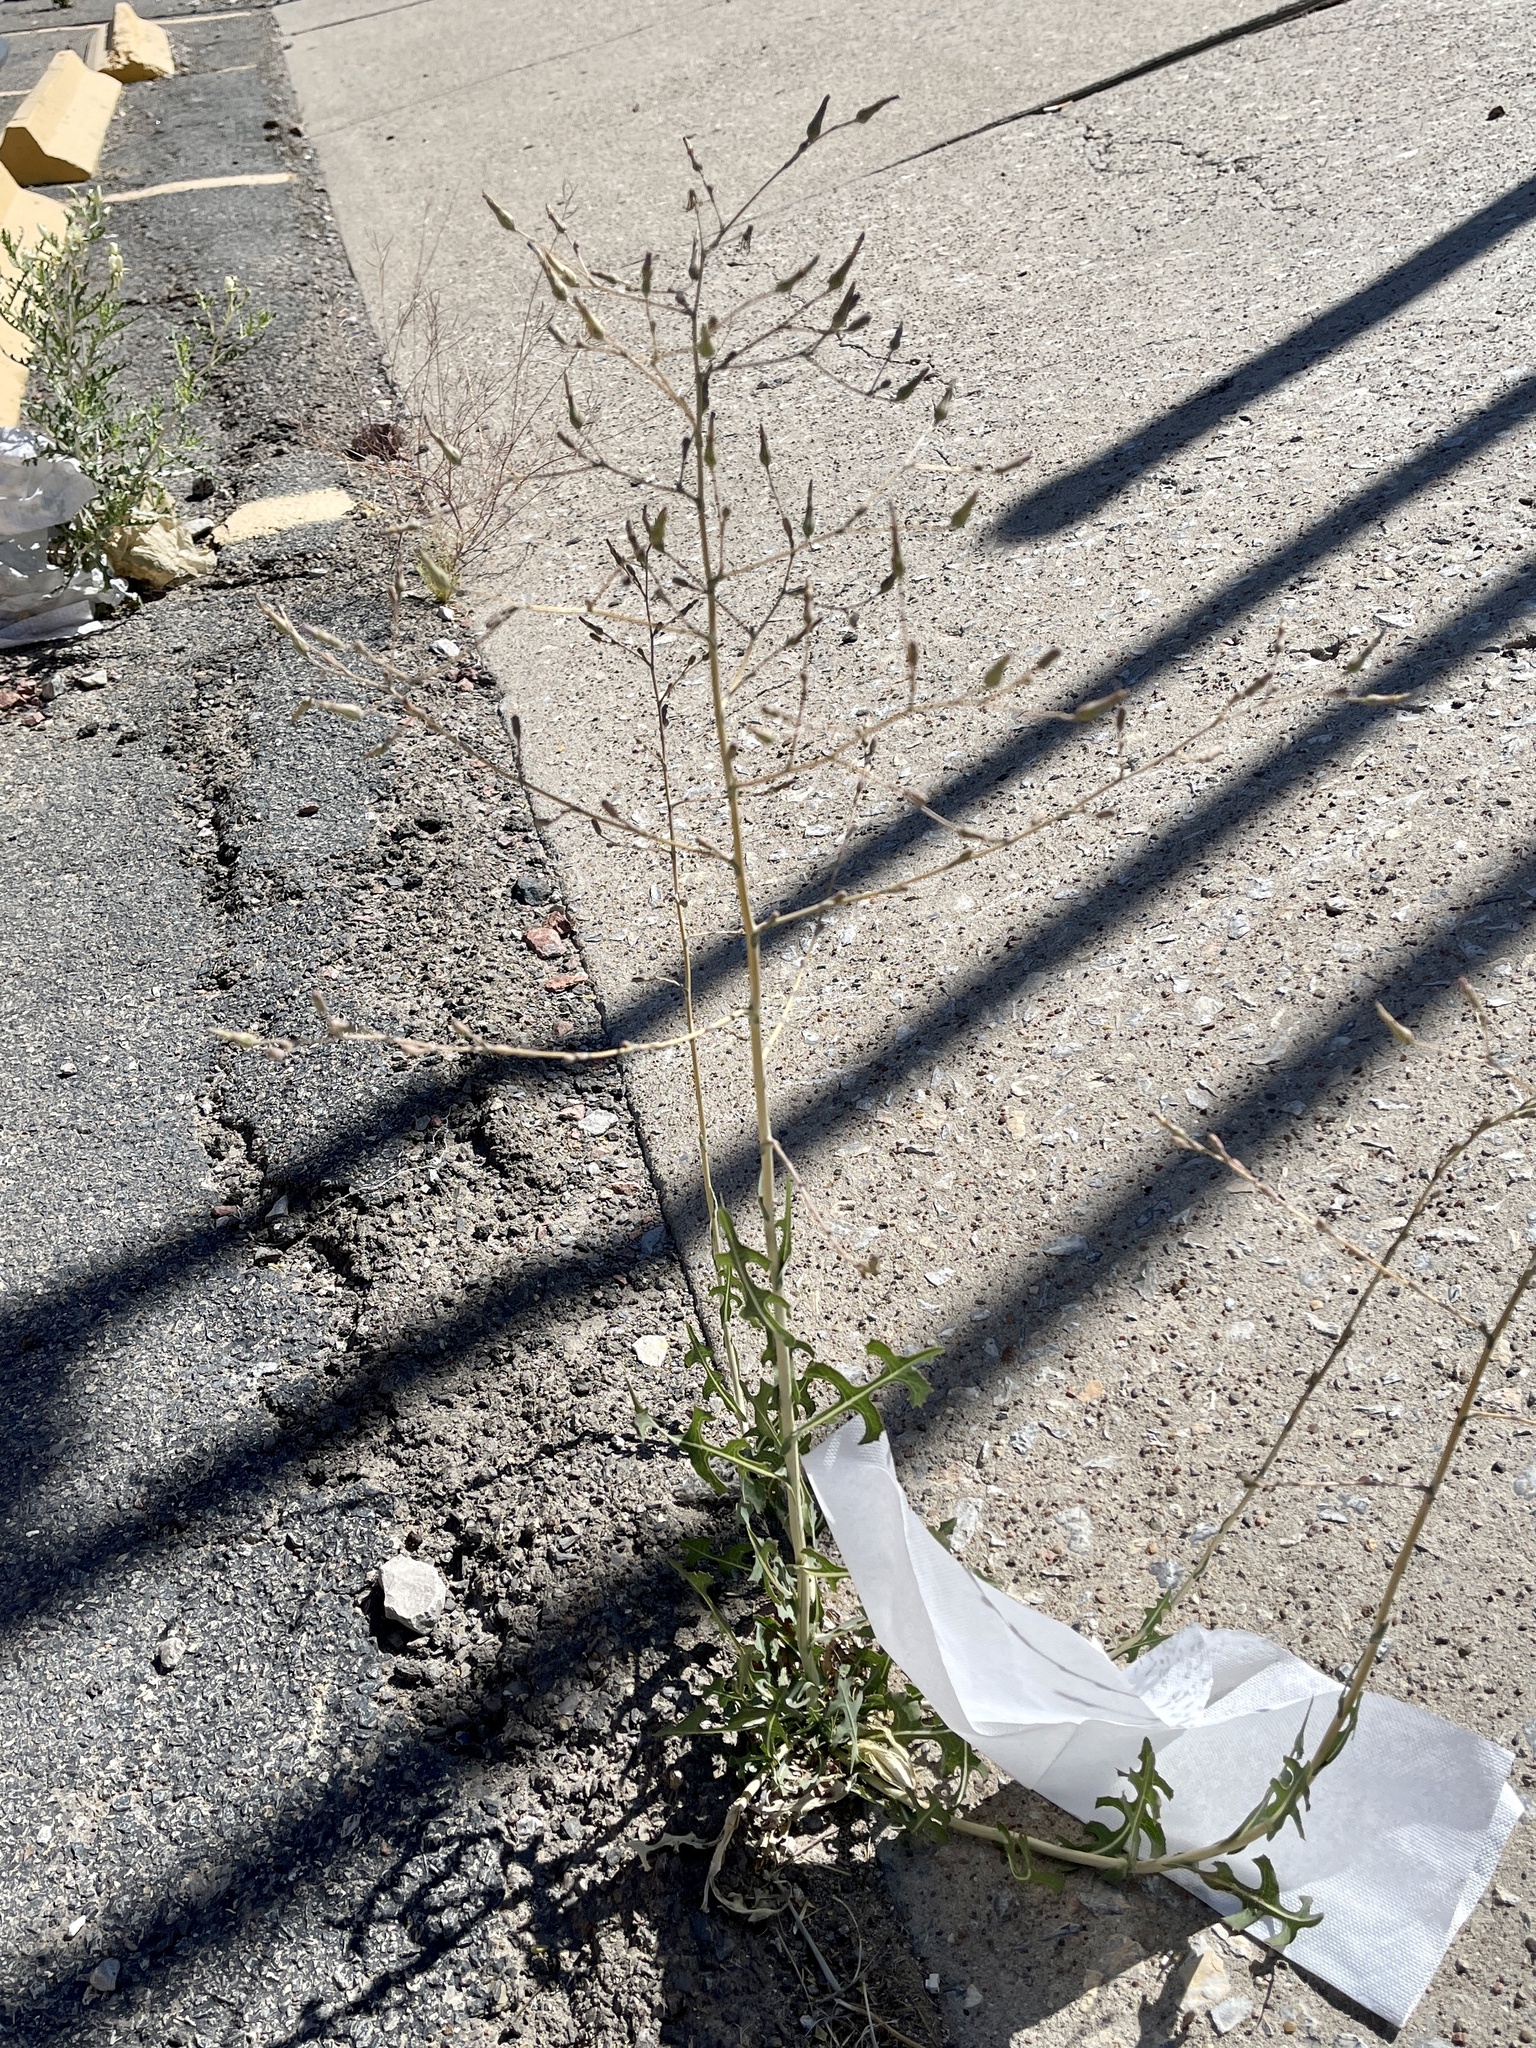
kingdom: Plantae
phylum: Tracheophyta
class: Magnoliopsida
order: Asterales
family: Asteraceae
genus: Lactuca
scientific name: Lactuca serriola
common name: Prickly lettuce
